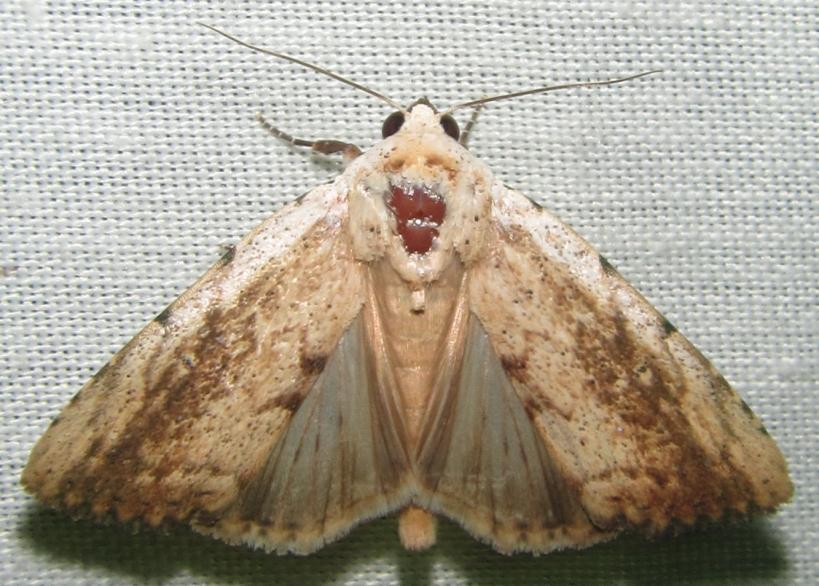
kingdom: Animalia
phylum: Arthropoda
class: Insecta
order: Lepidoptera
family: Erebidae
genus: Tachosa
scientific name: Tachosa
